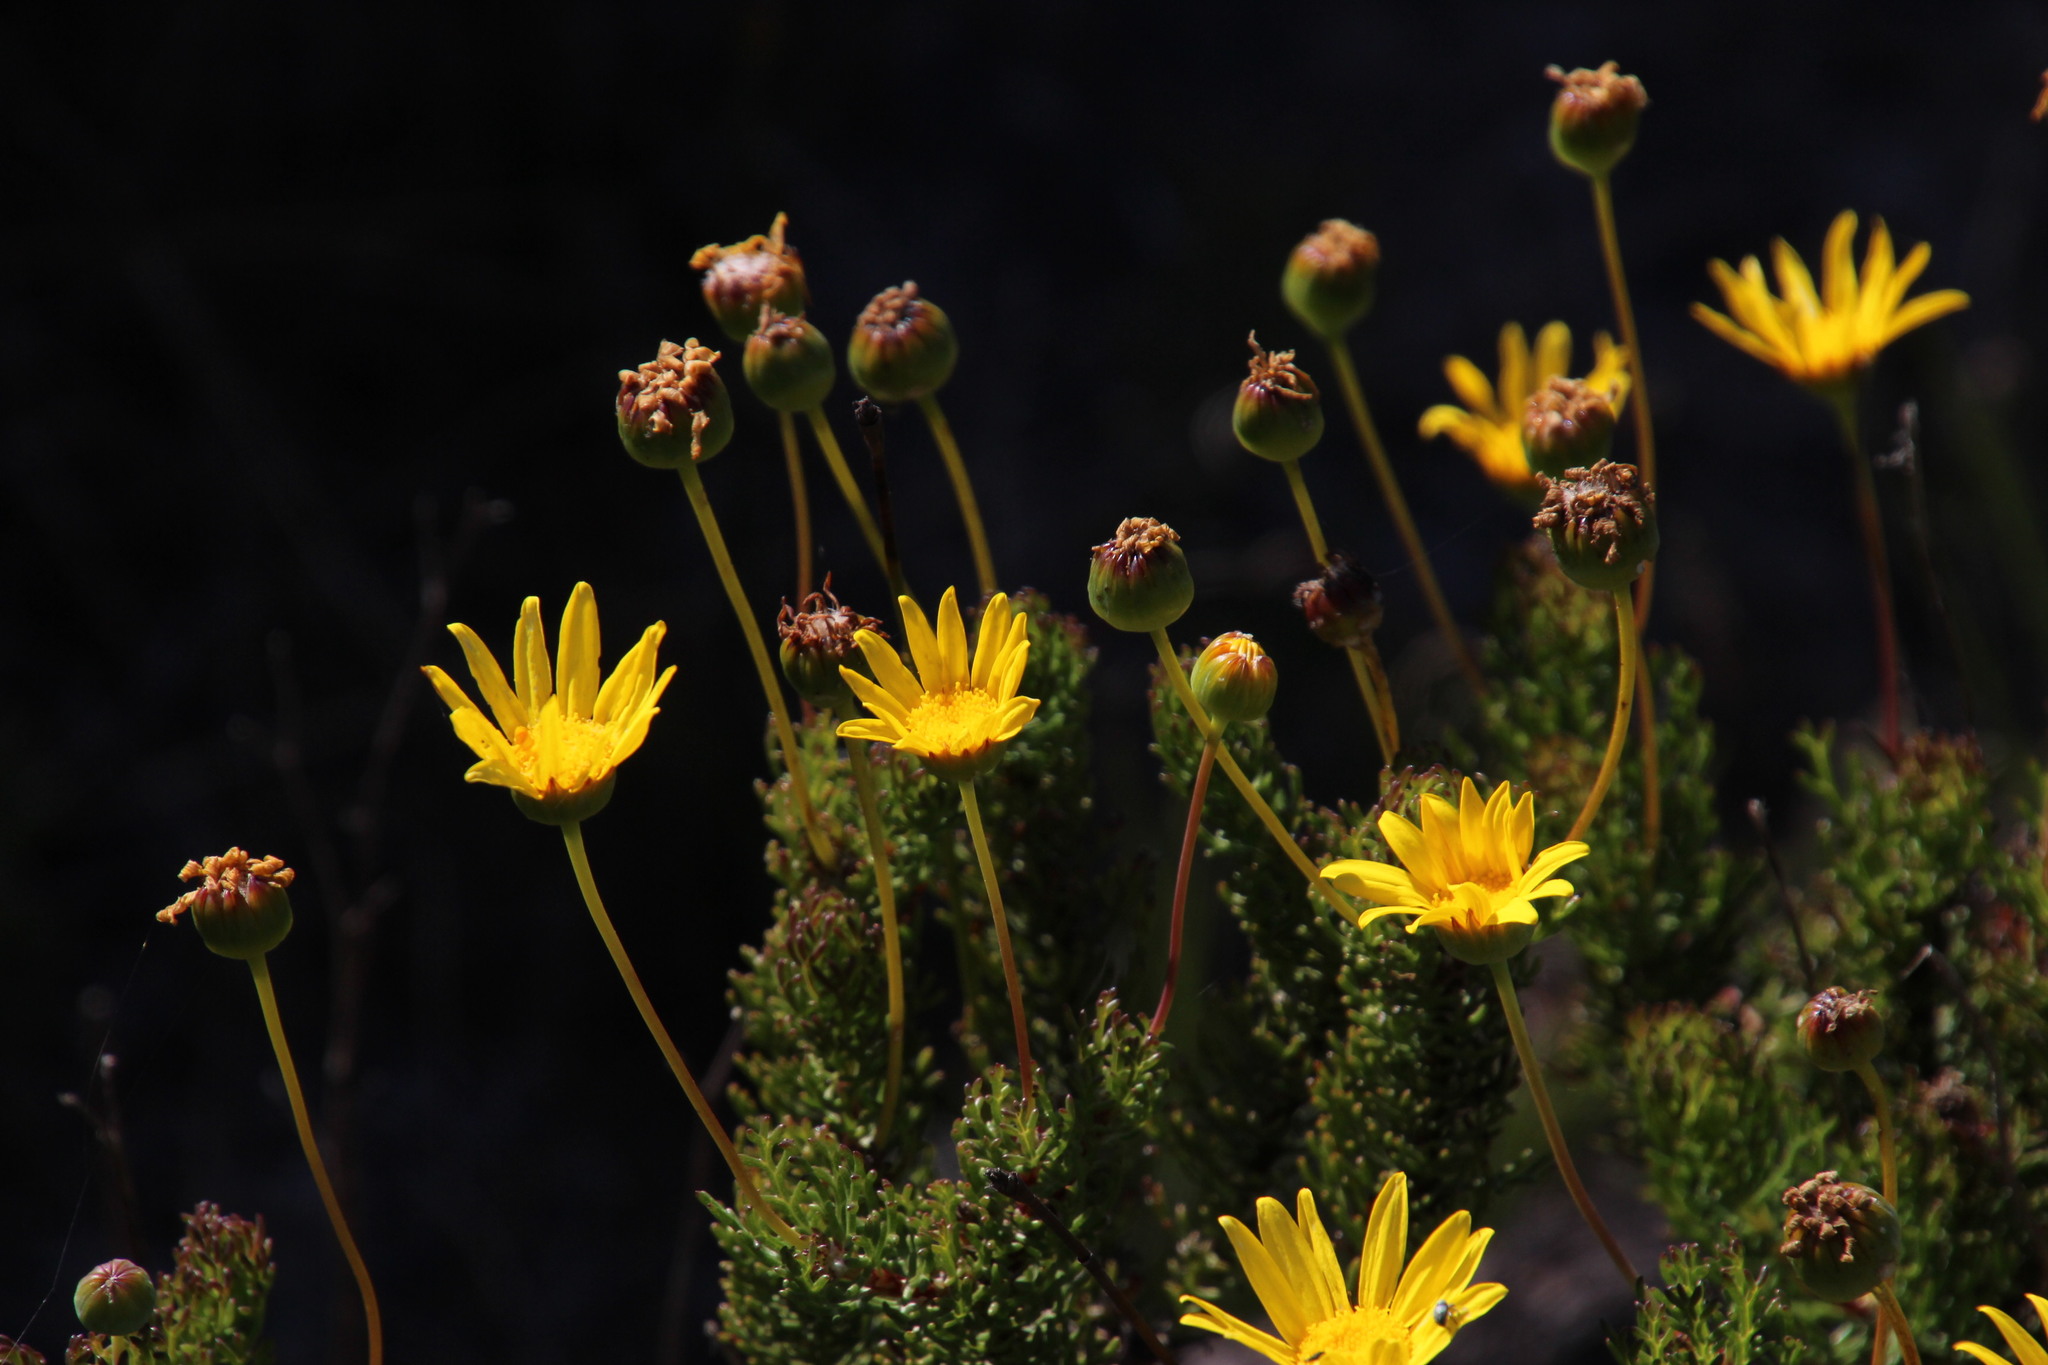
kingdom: Plantae
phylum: Tracheophyta
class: Magnoliopsida
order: Asterales
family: Asteraceae
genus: Euryops
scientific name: Euryops abrotanifolius
